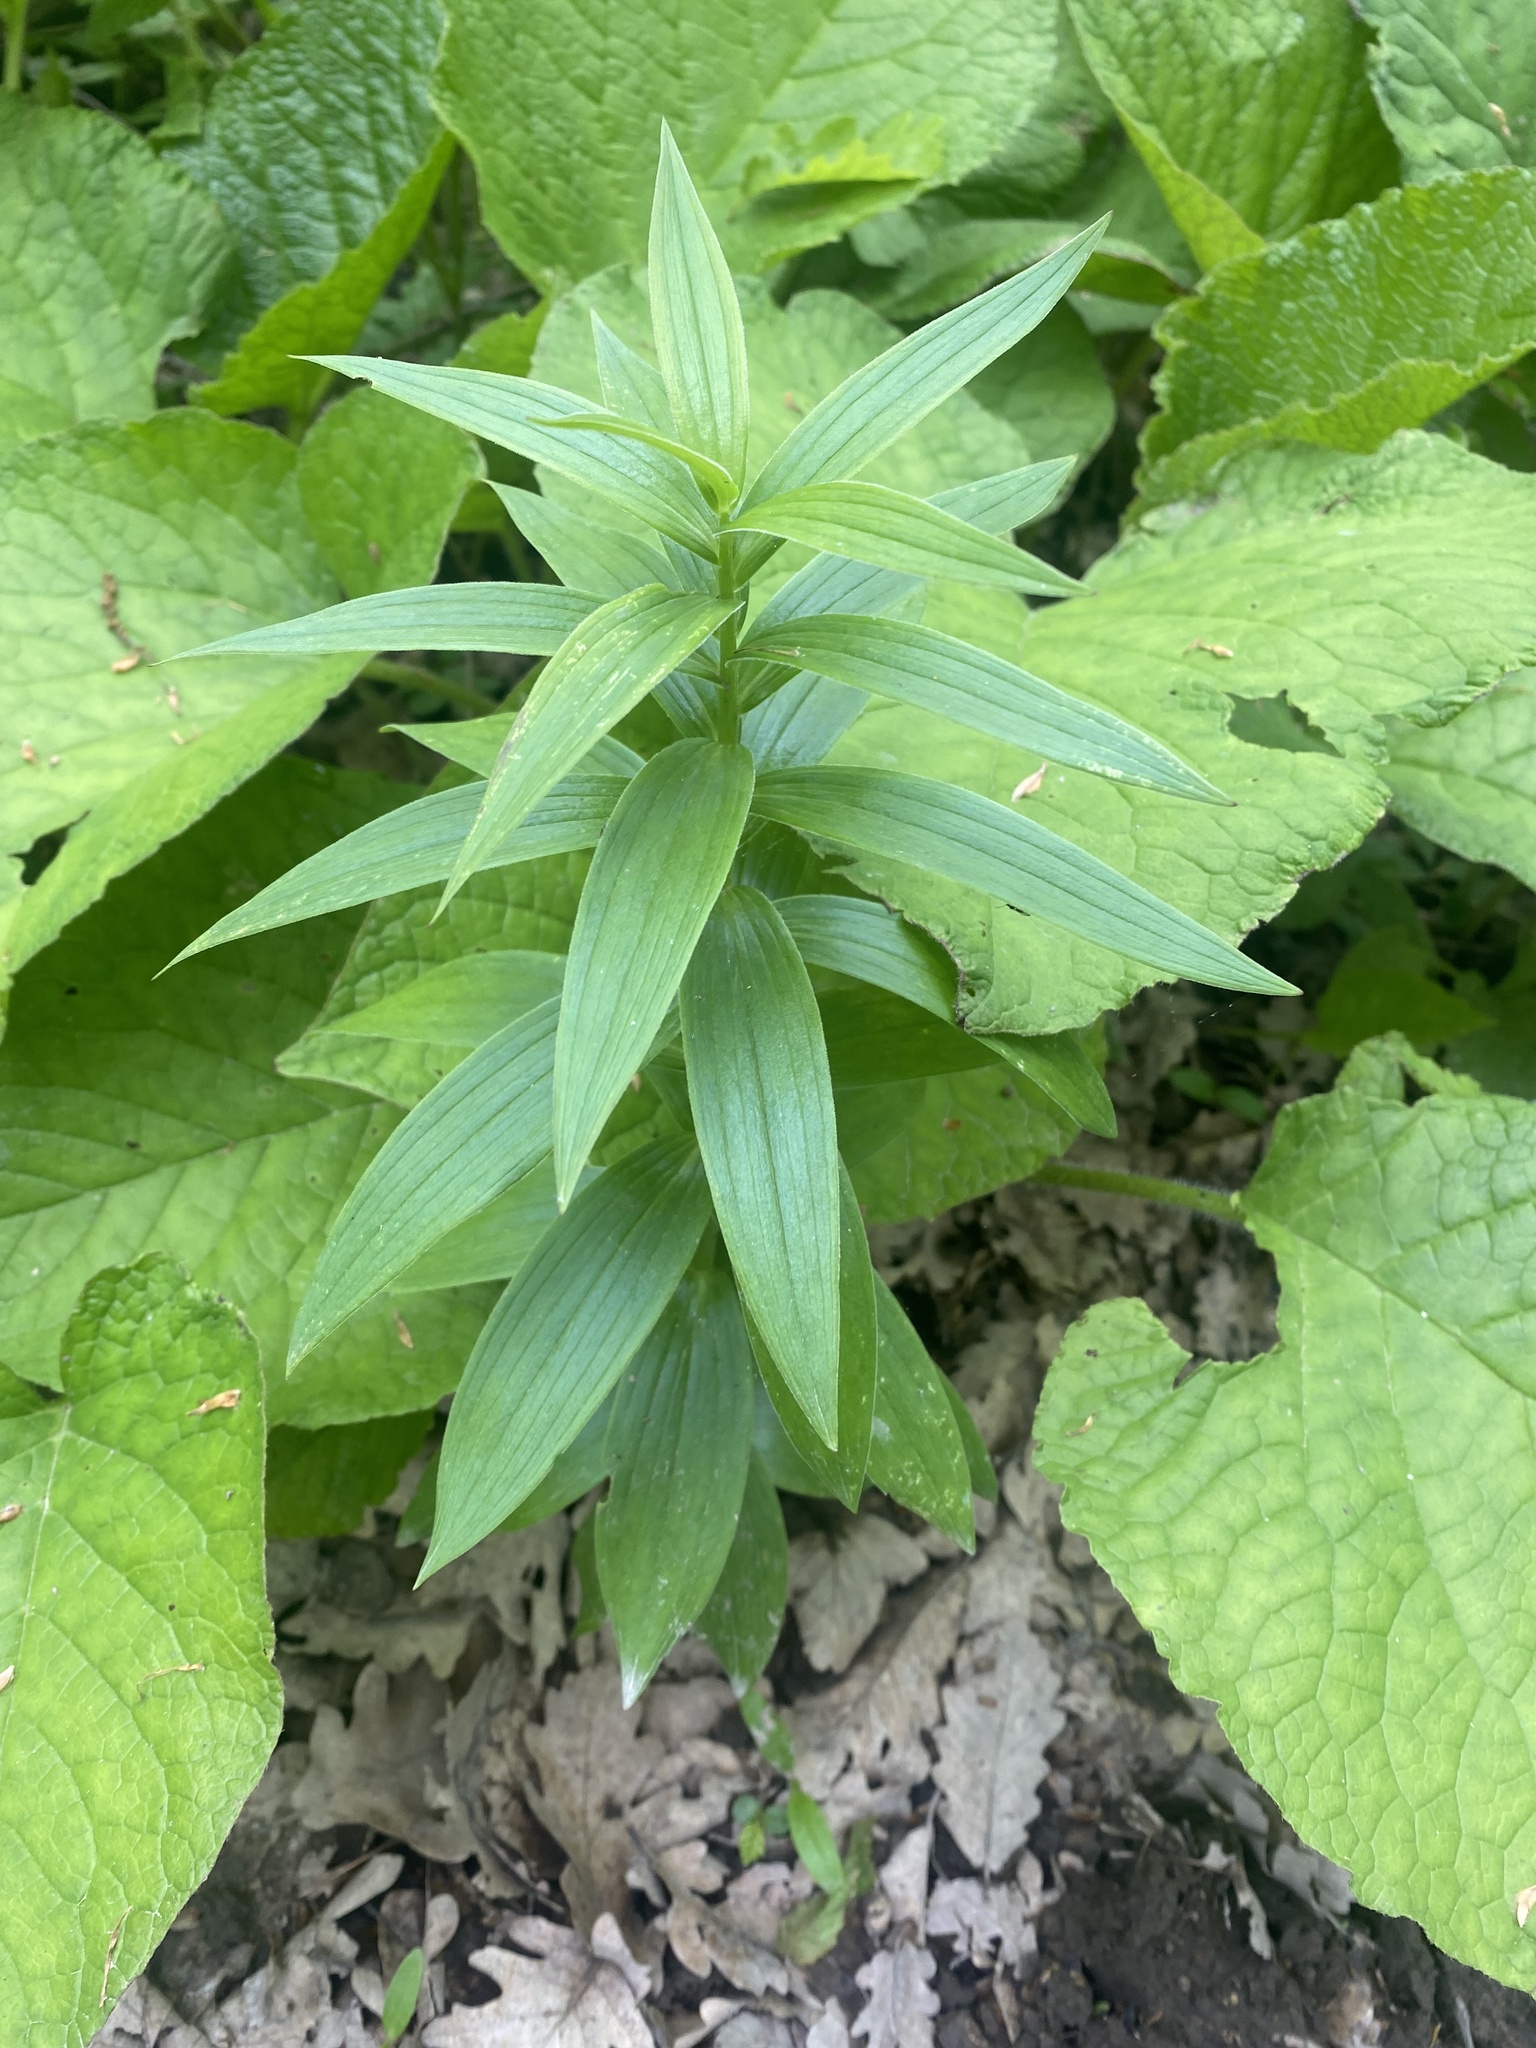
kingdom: Plantae
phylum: Tracheophyta
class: Liliopsida
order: Liliales
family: Liliaceae
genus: Lilium
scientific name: Lilium monadelphum
